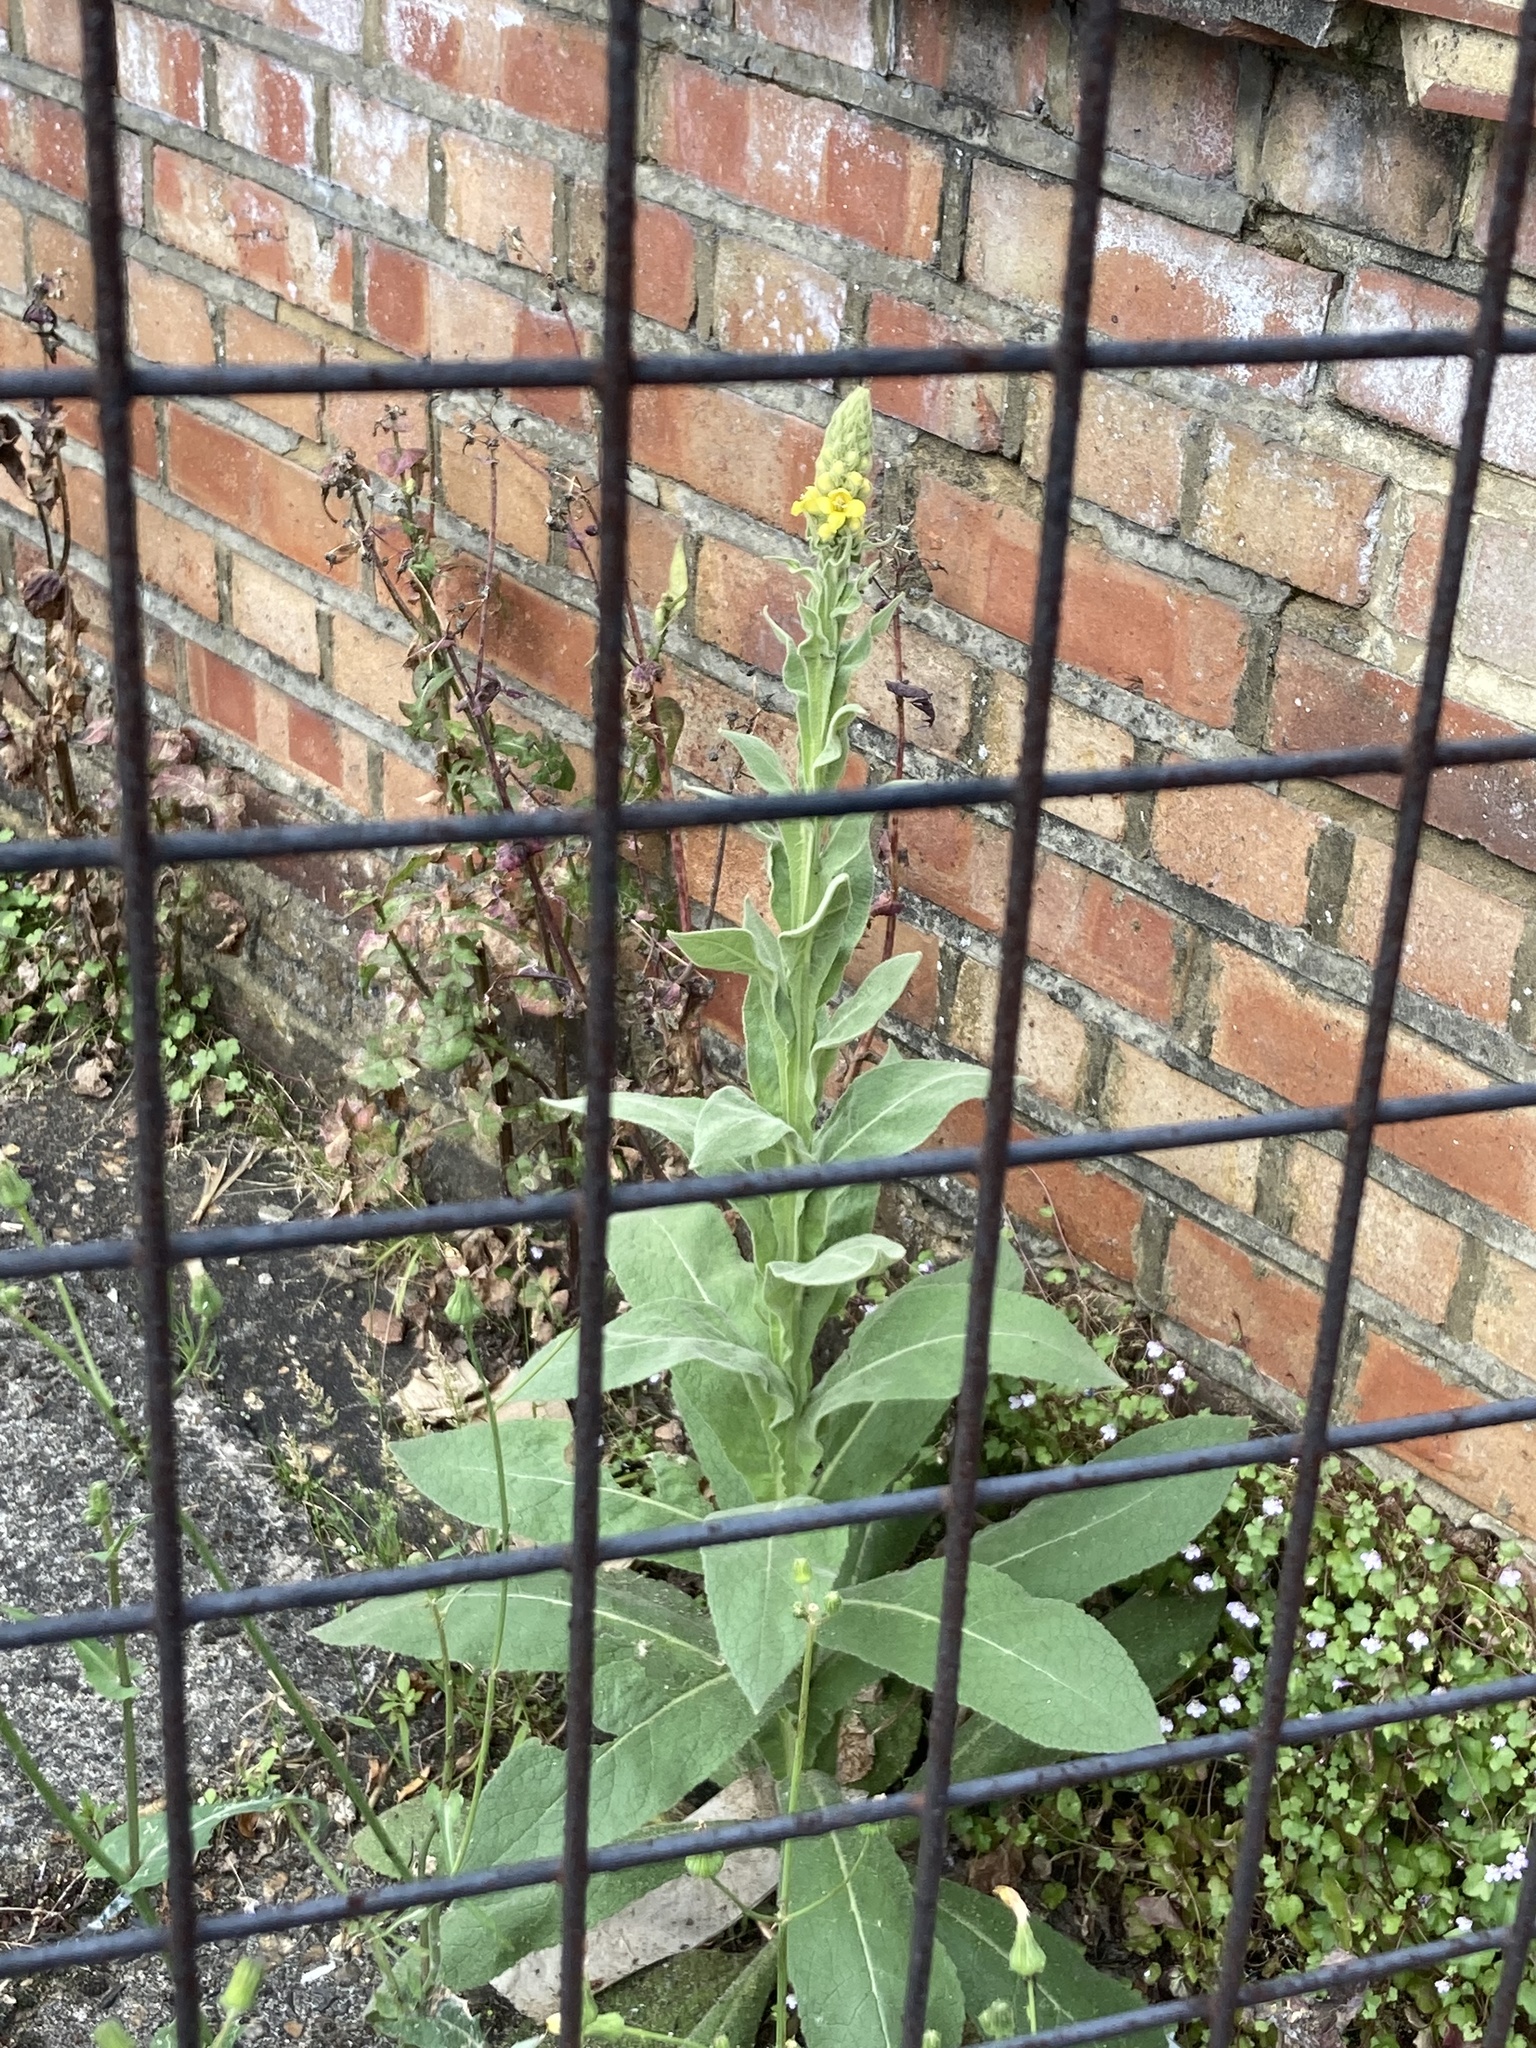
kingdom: Plantae
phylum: Tracheophyta
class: Magnoliopsida
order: Lamiales
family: Scrophulariaceae
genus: Verbascum
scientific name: Verbascum thapsus
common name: Common mullein
